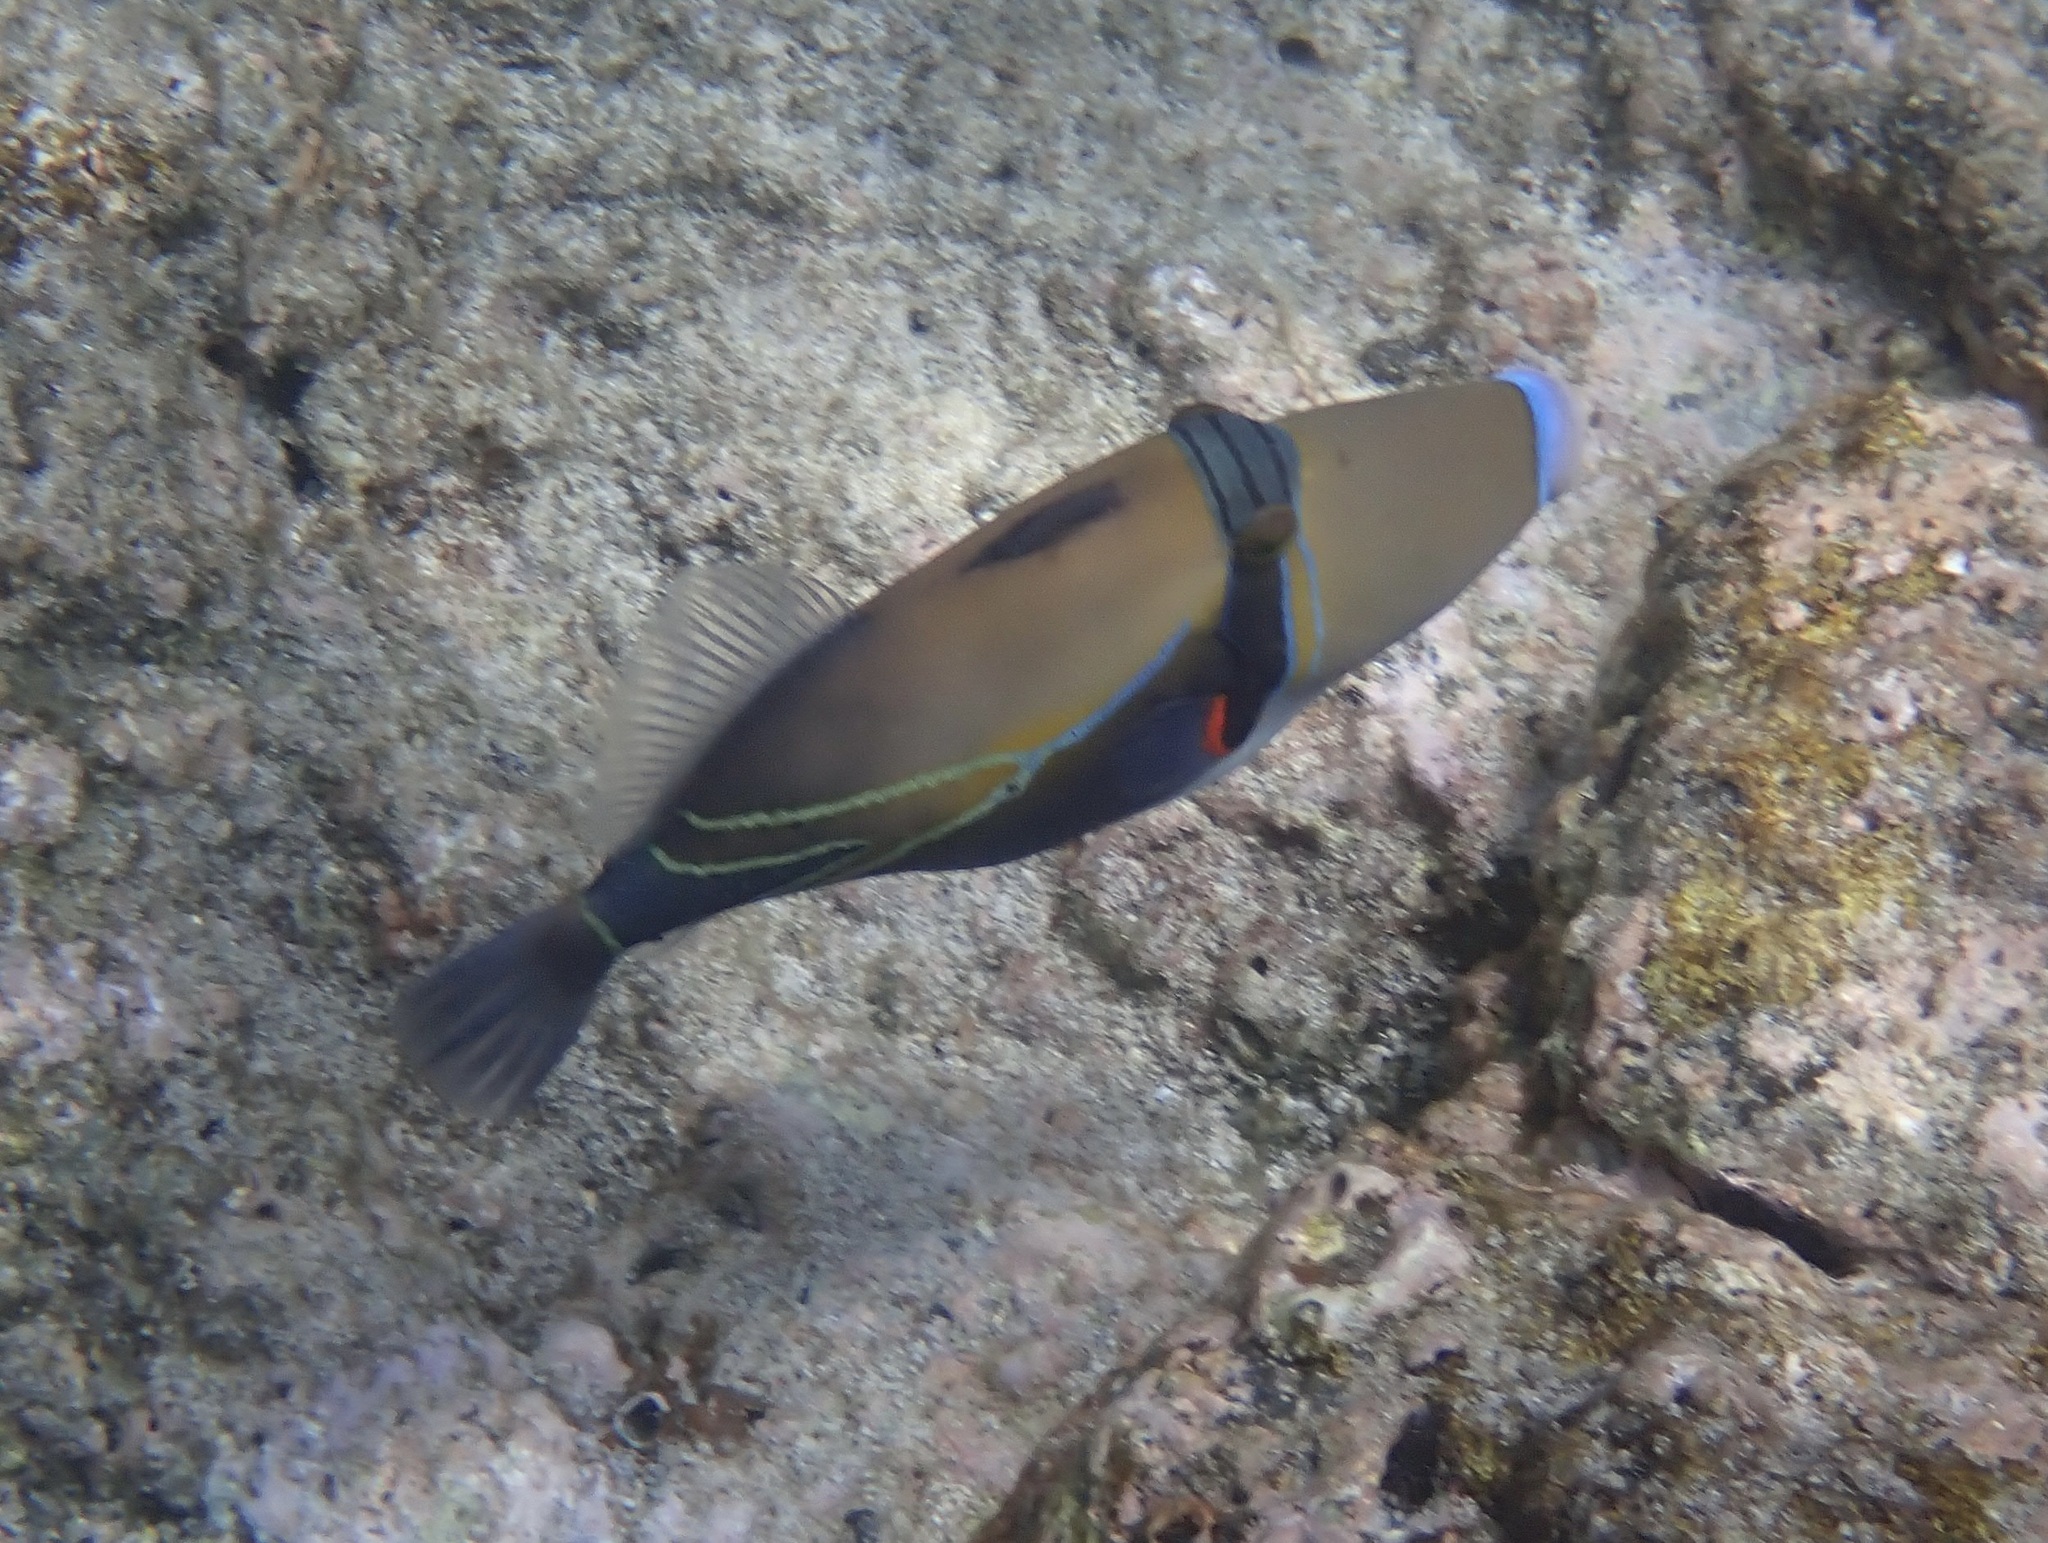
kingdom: Animalia
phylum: Chordata
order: Tetraodontiformes
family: Balistidae
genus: Rhinecanthus
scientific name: Rhinecanthus rectangulus
